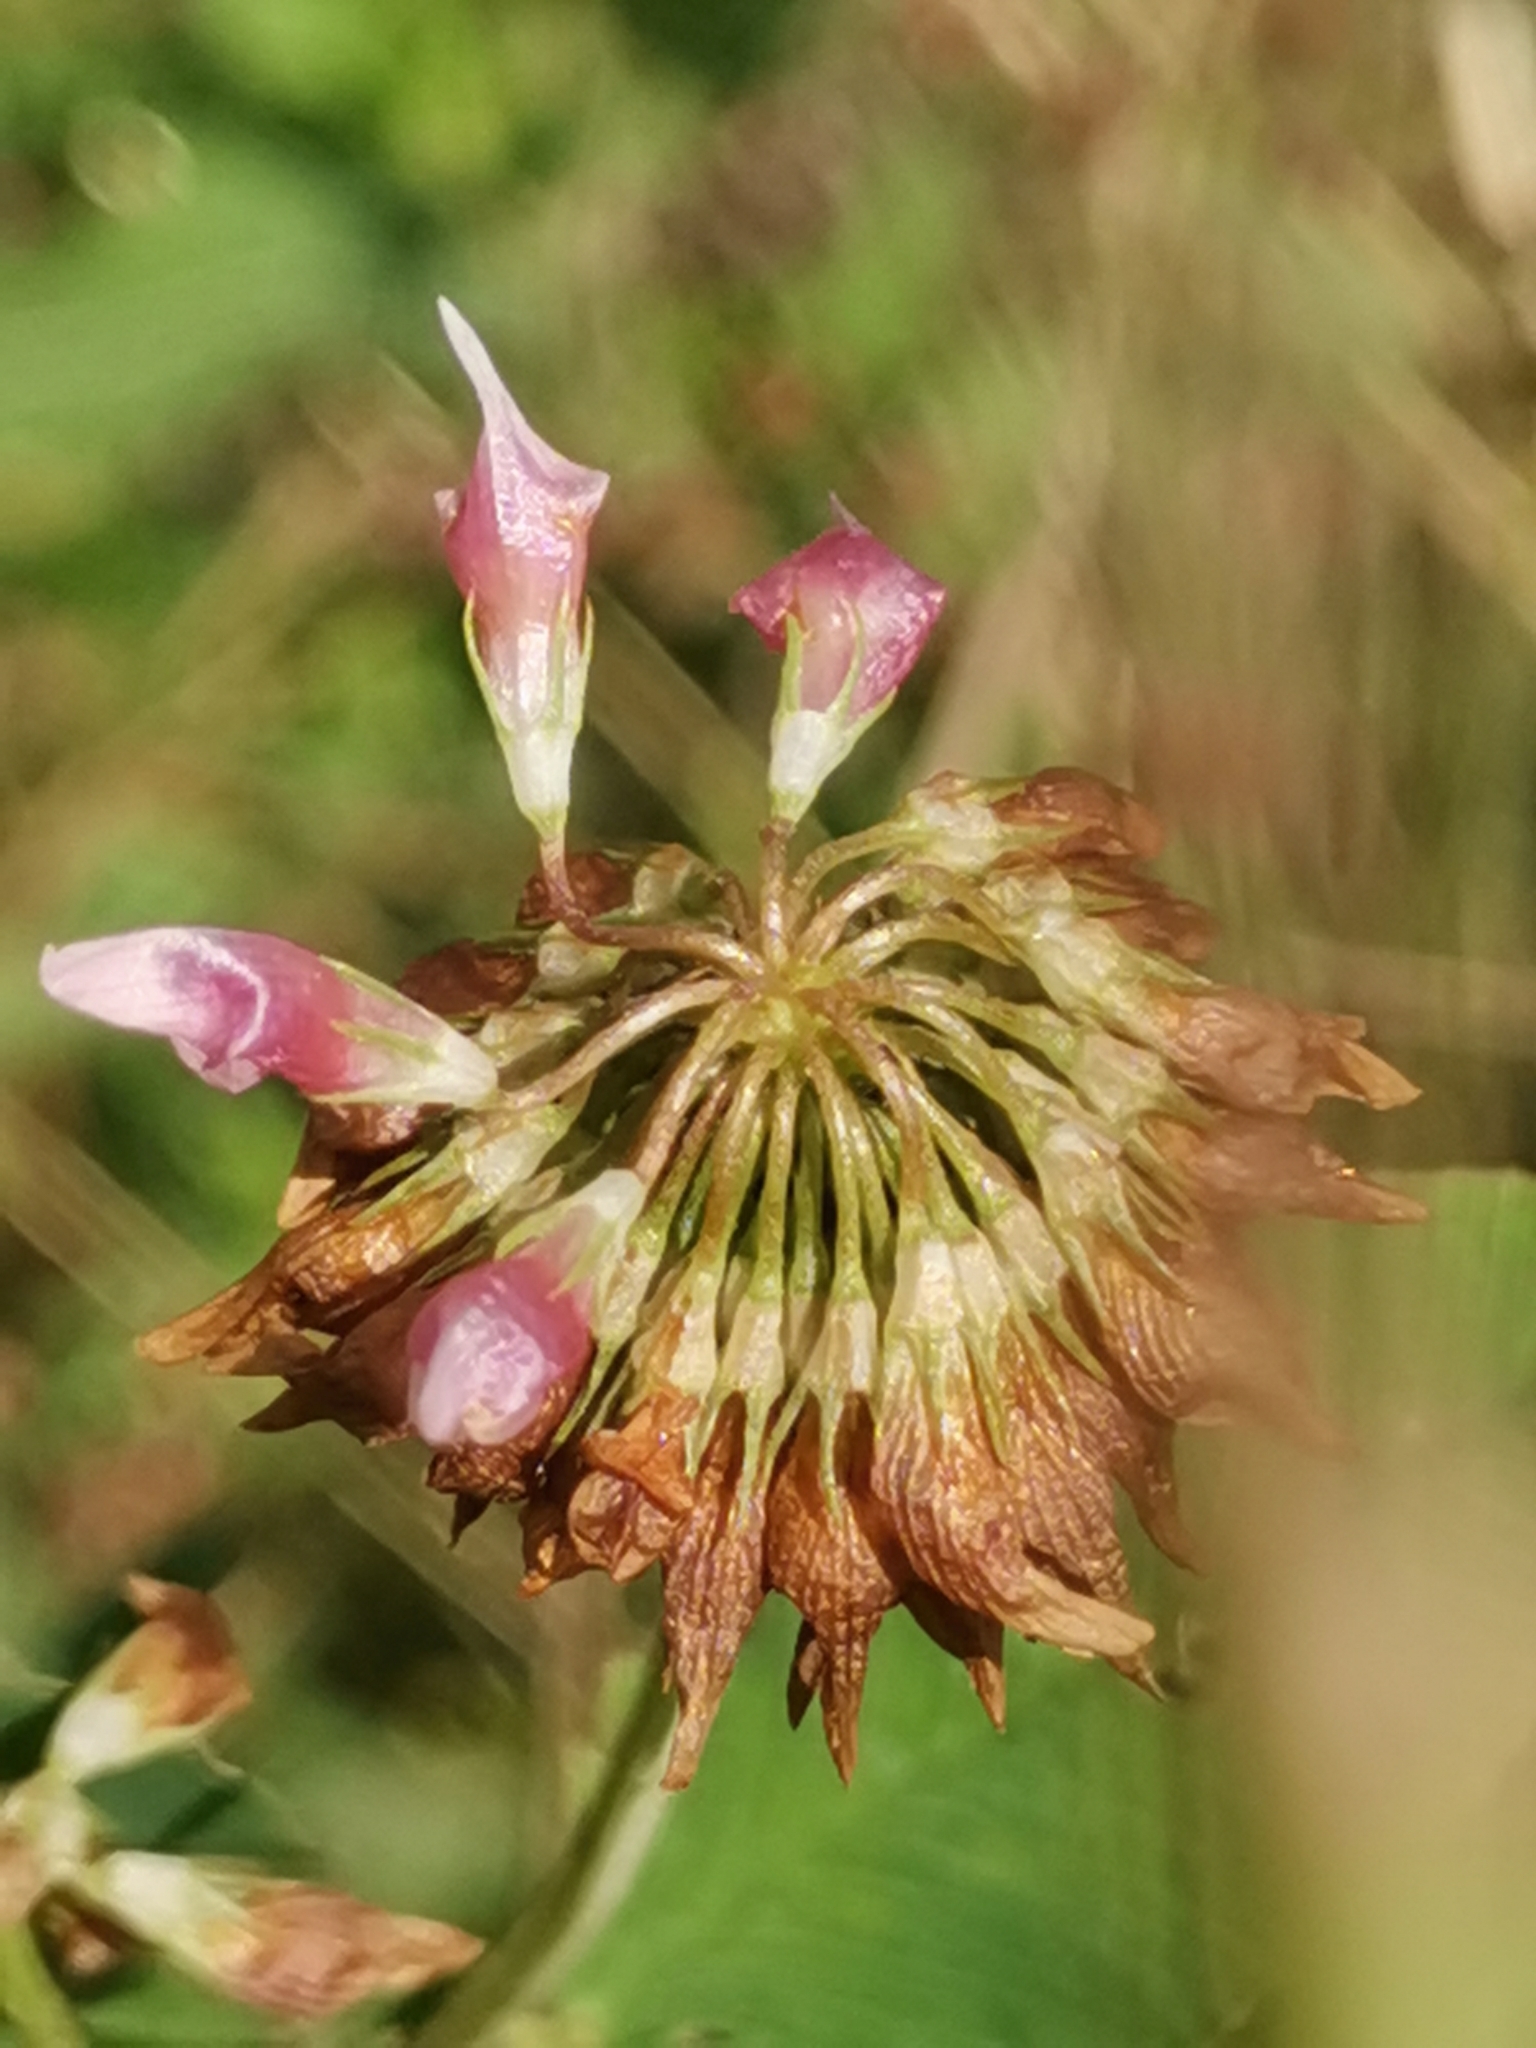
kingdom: Plantae
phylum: Tracheophyta
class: Magnoliopsida
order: Fabales
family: Fabaceae
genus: Trifolium
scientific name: Trifolium hybridum
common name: Alsike clover
